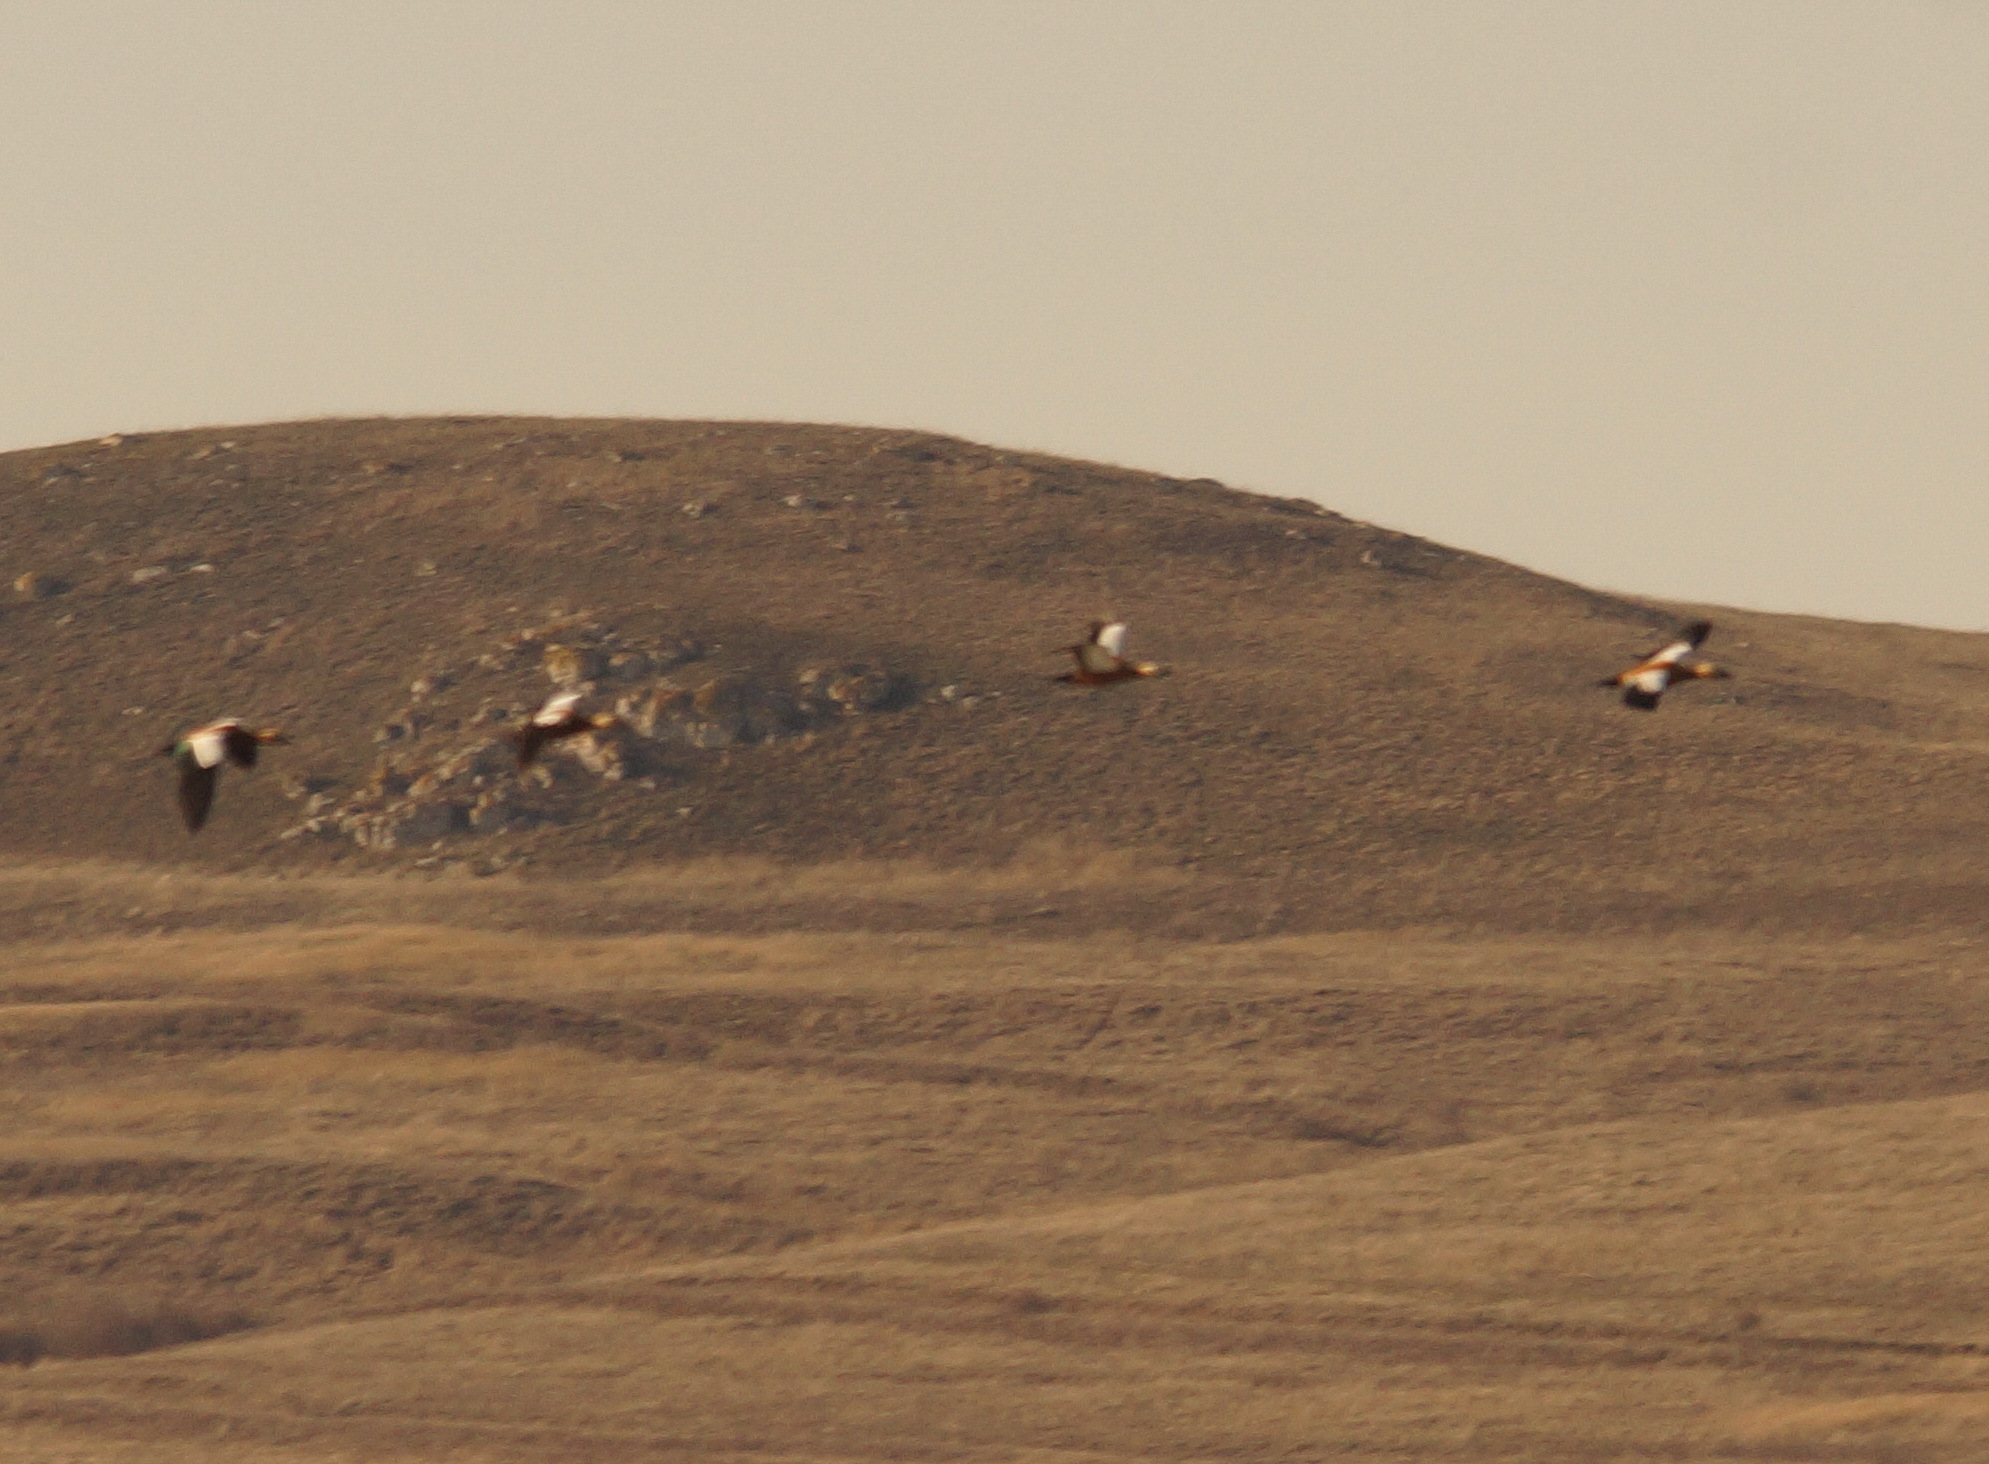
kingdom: Animalia
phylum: Chordata
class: Aves
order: Anseriformes
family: Anatidae
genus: Tadorna
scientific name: Tadorna ferruginea
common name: Ruddy shelduck
